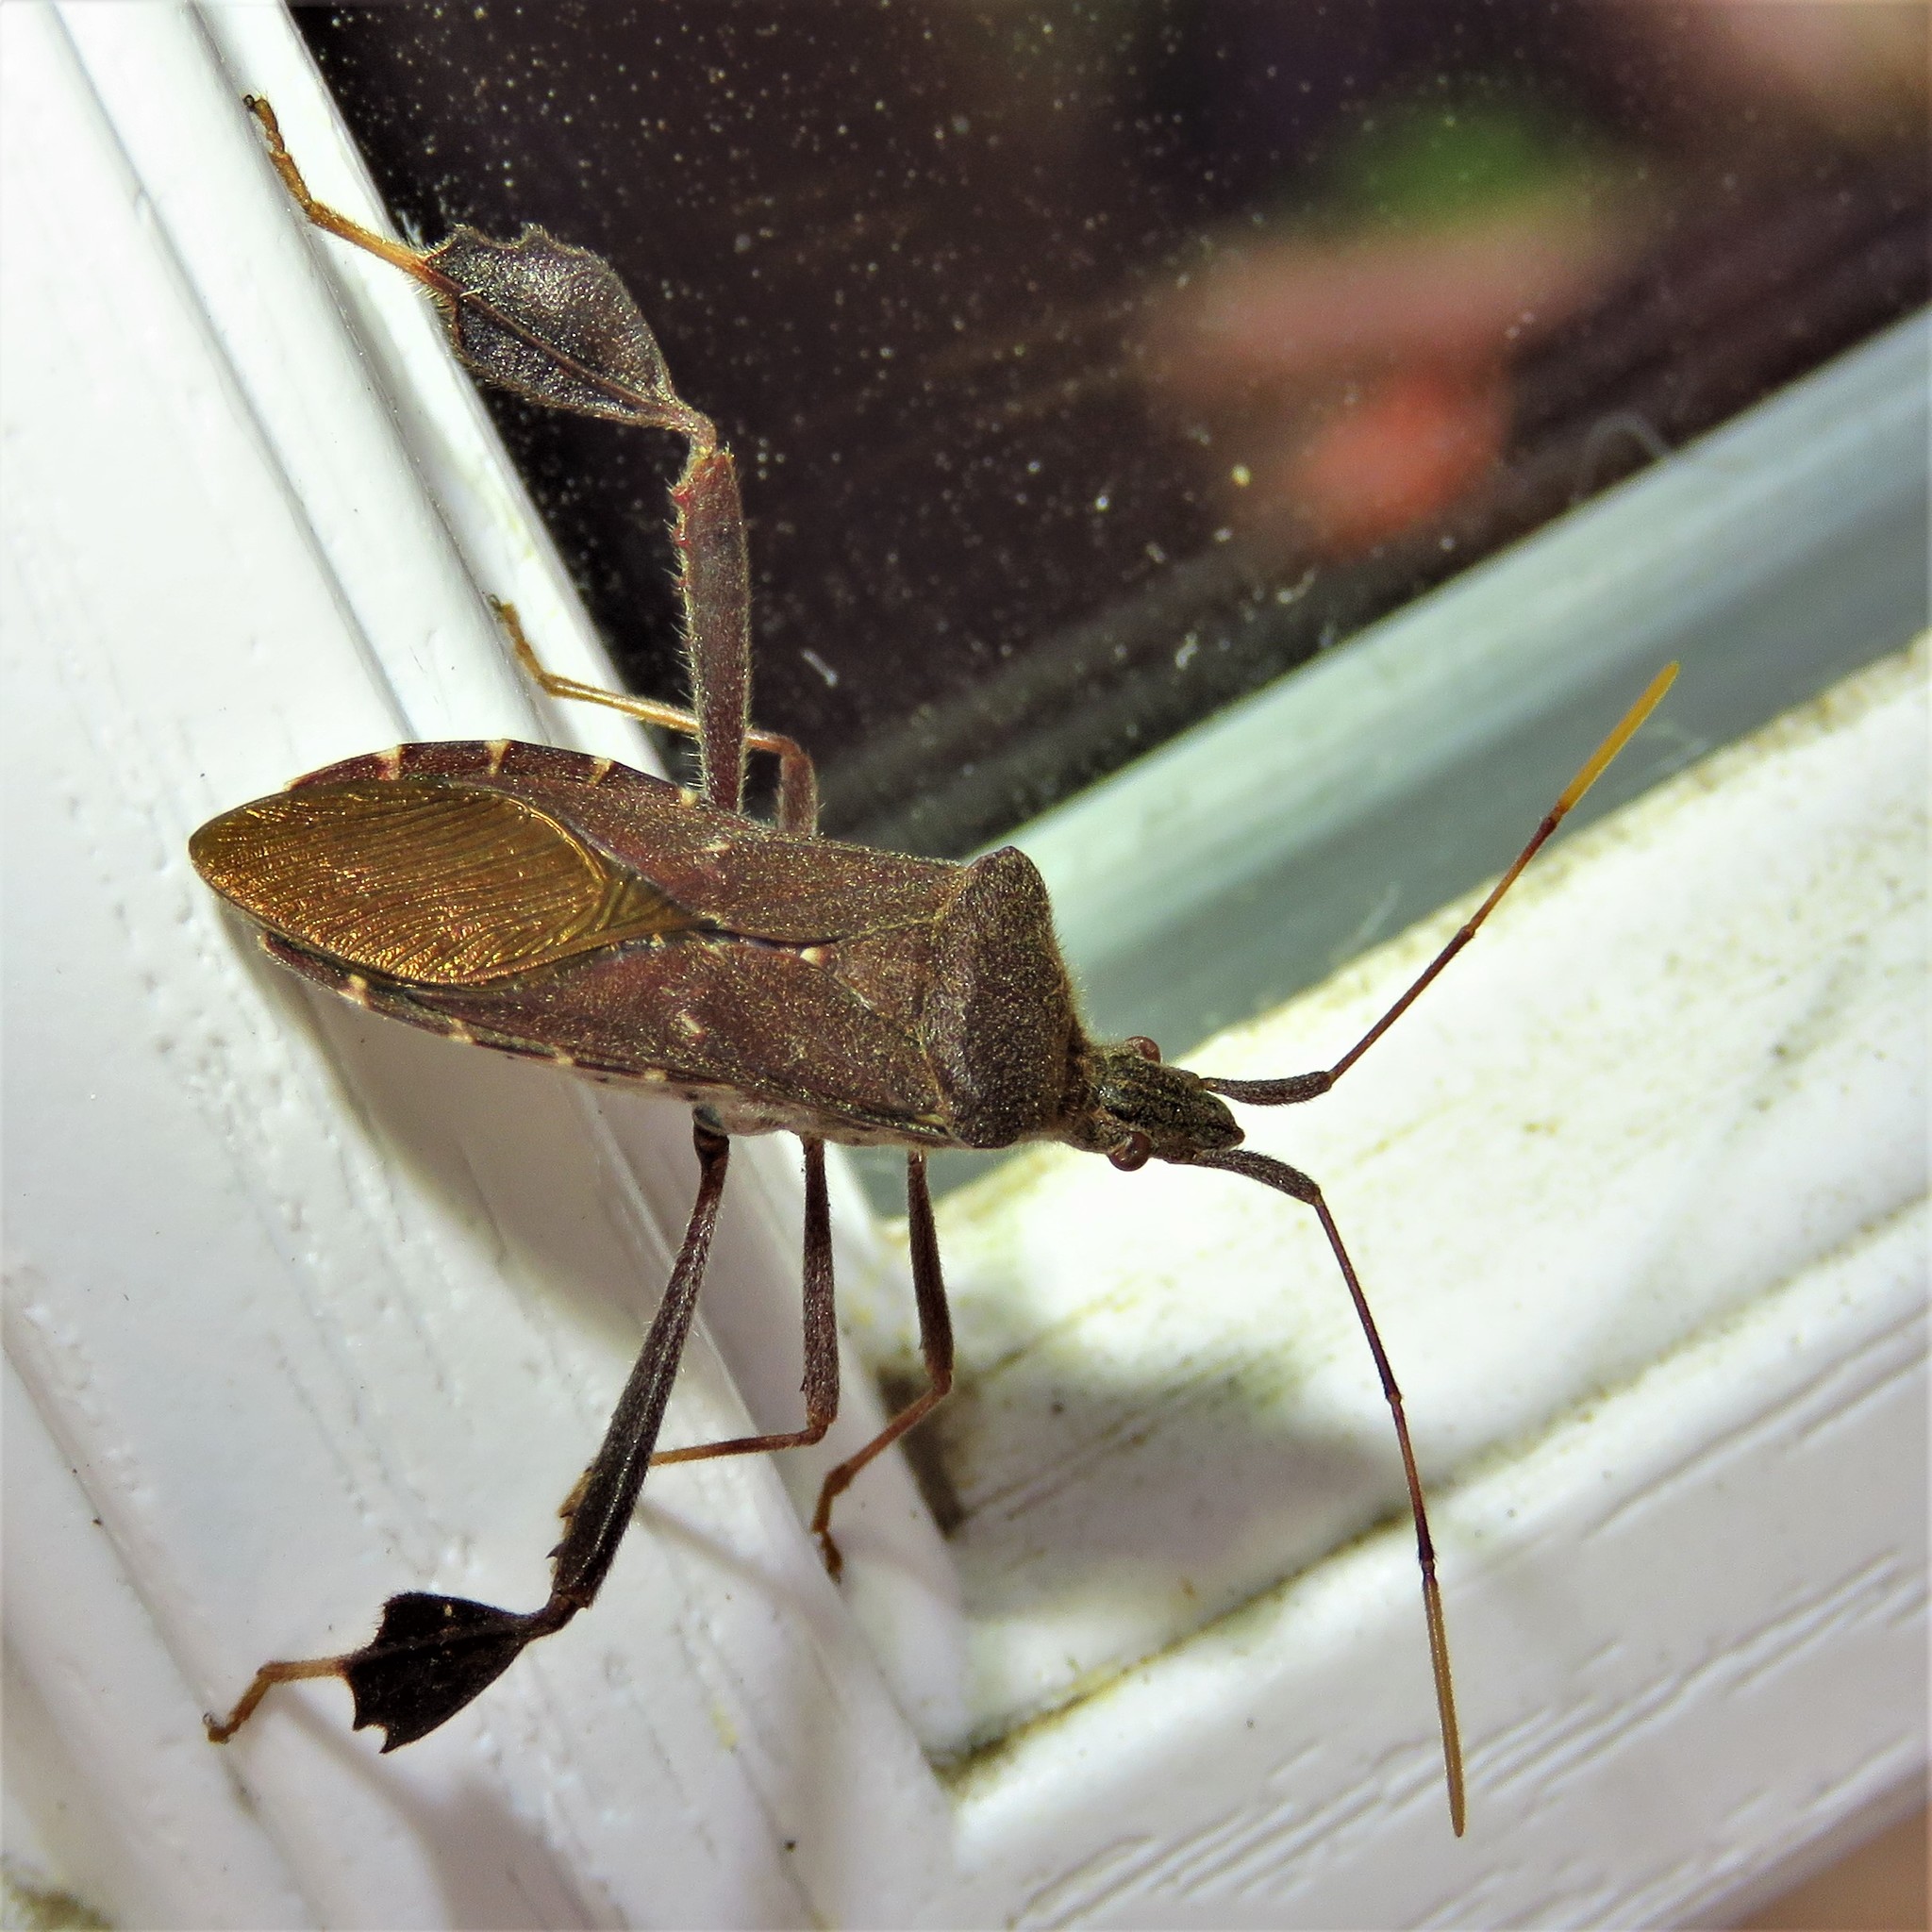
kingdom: Animalia
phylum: Arthropoda
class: Insecta
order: Hemiptera
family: Coreidae
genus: Leptoglossus
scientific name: Leptoglossus oppositus
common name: Northern leaf-footed bug
